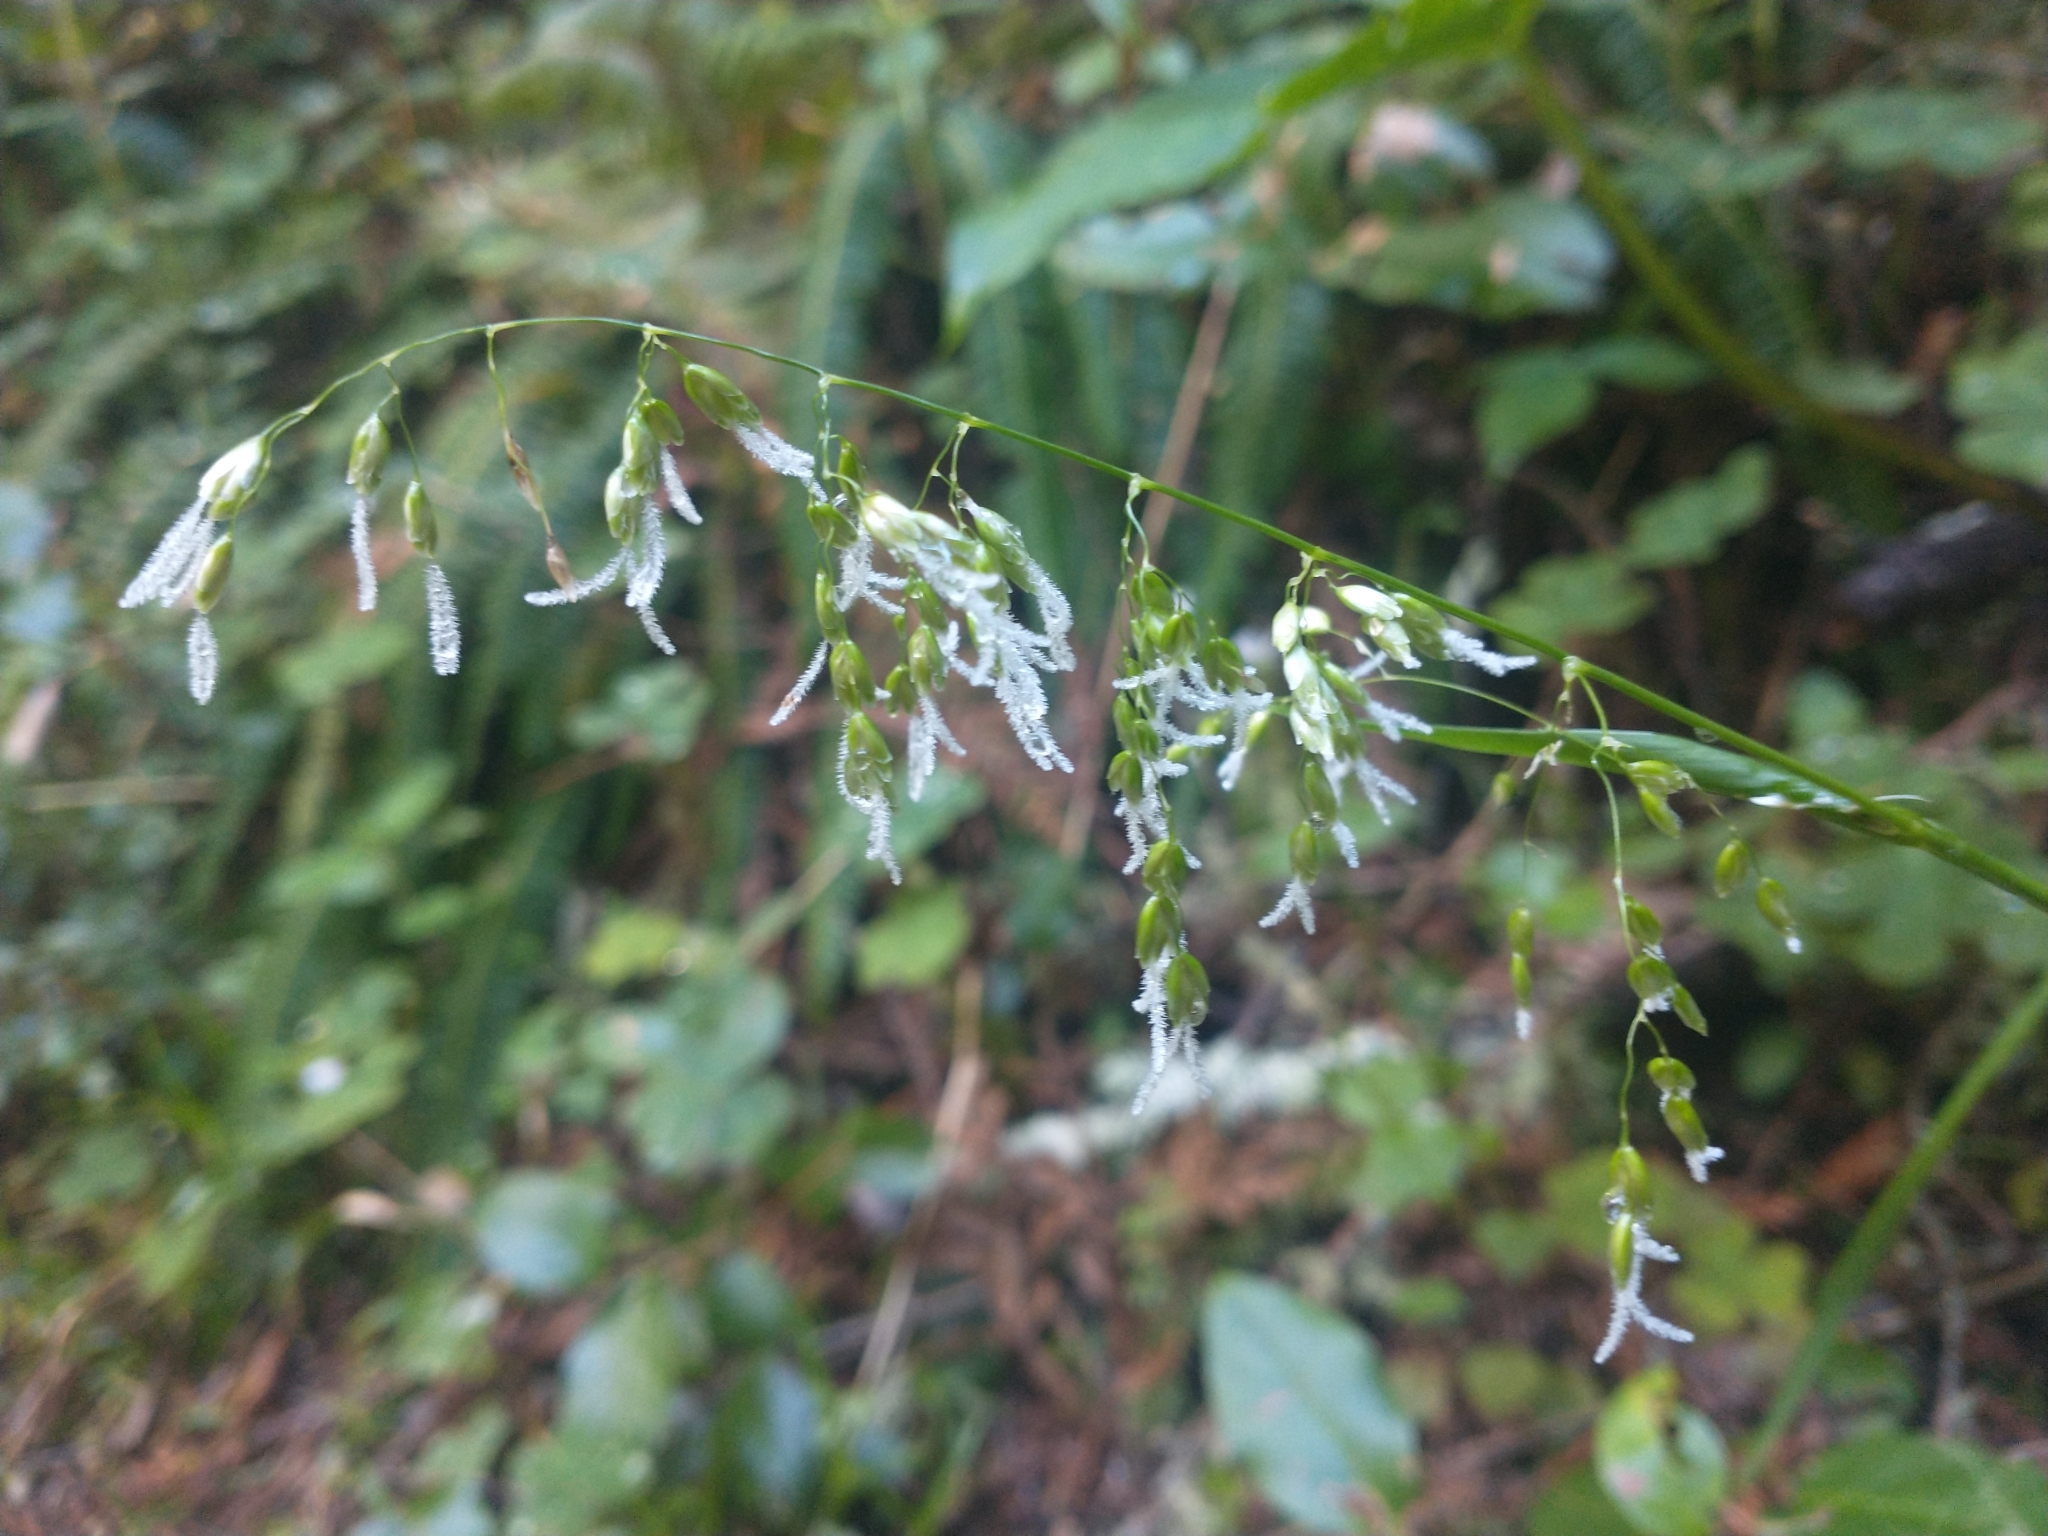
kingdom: Plantae
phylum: Tracheophyta
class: Liliopsida
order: Poales
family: Poaceae
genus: Anthoxanthum
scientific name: Anthoxanthum occidentale
